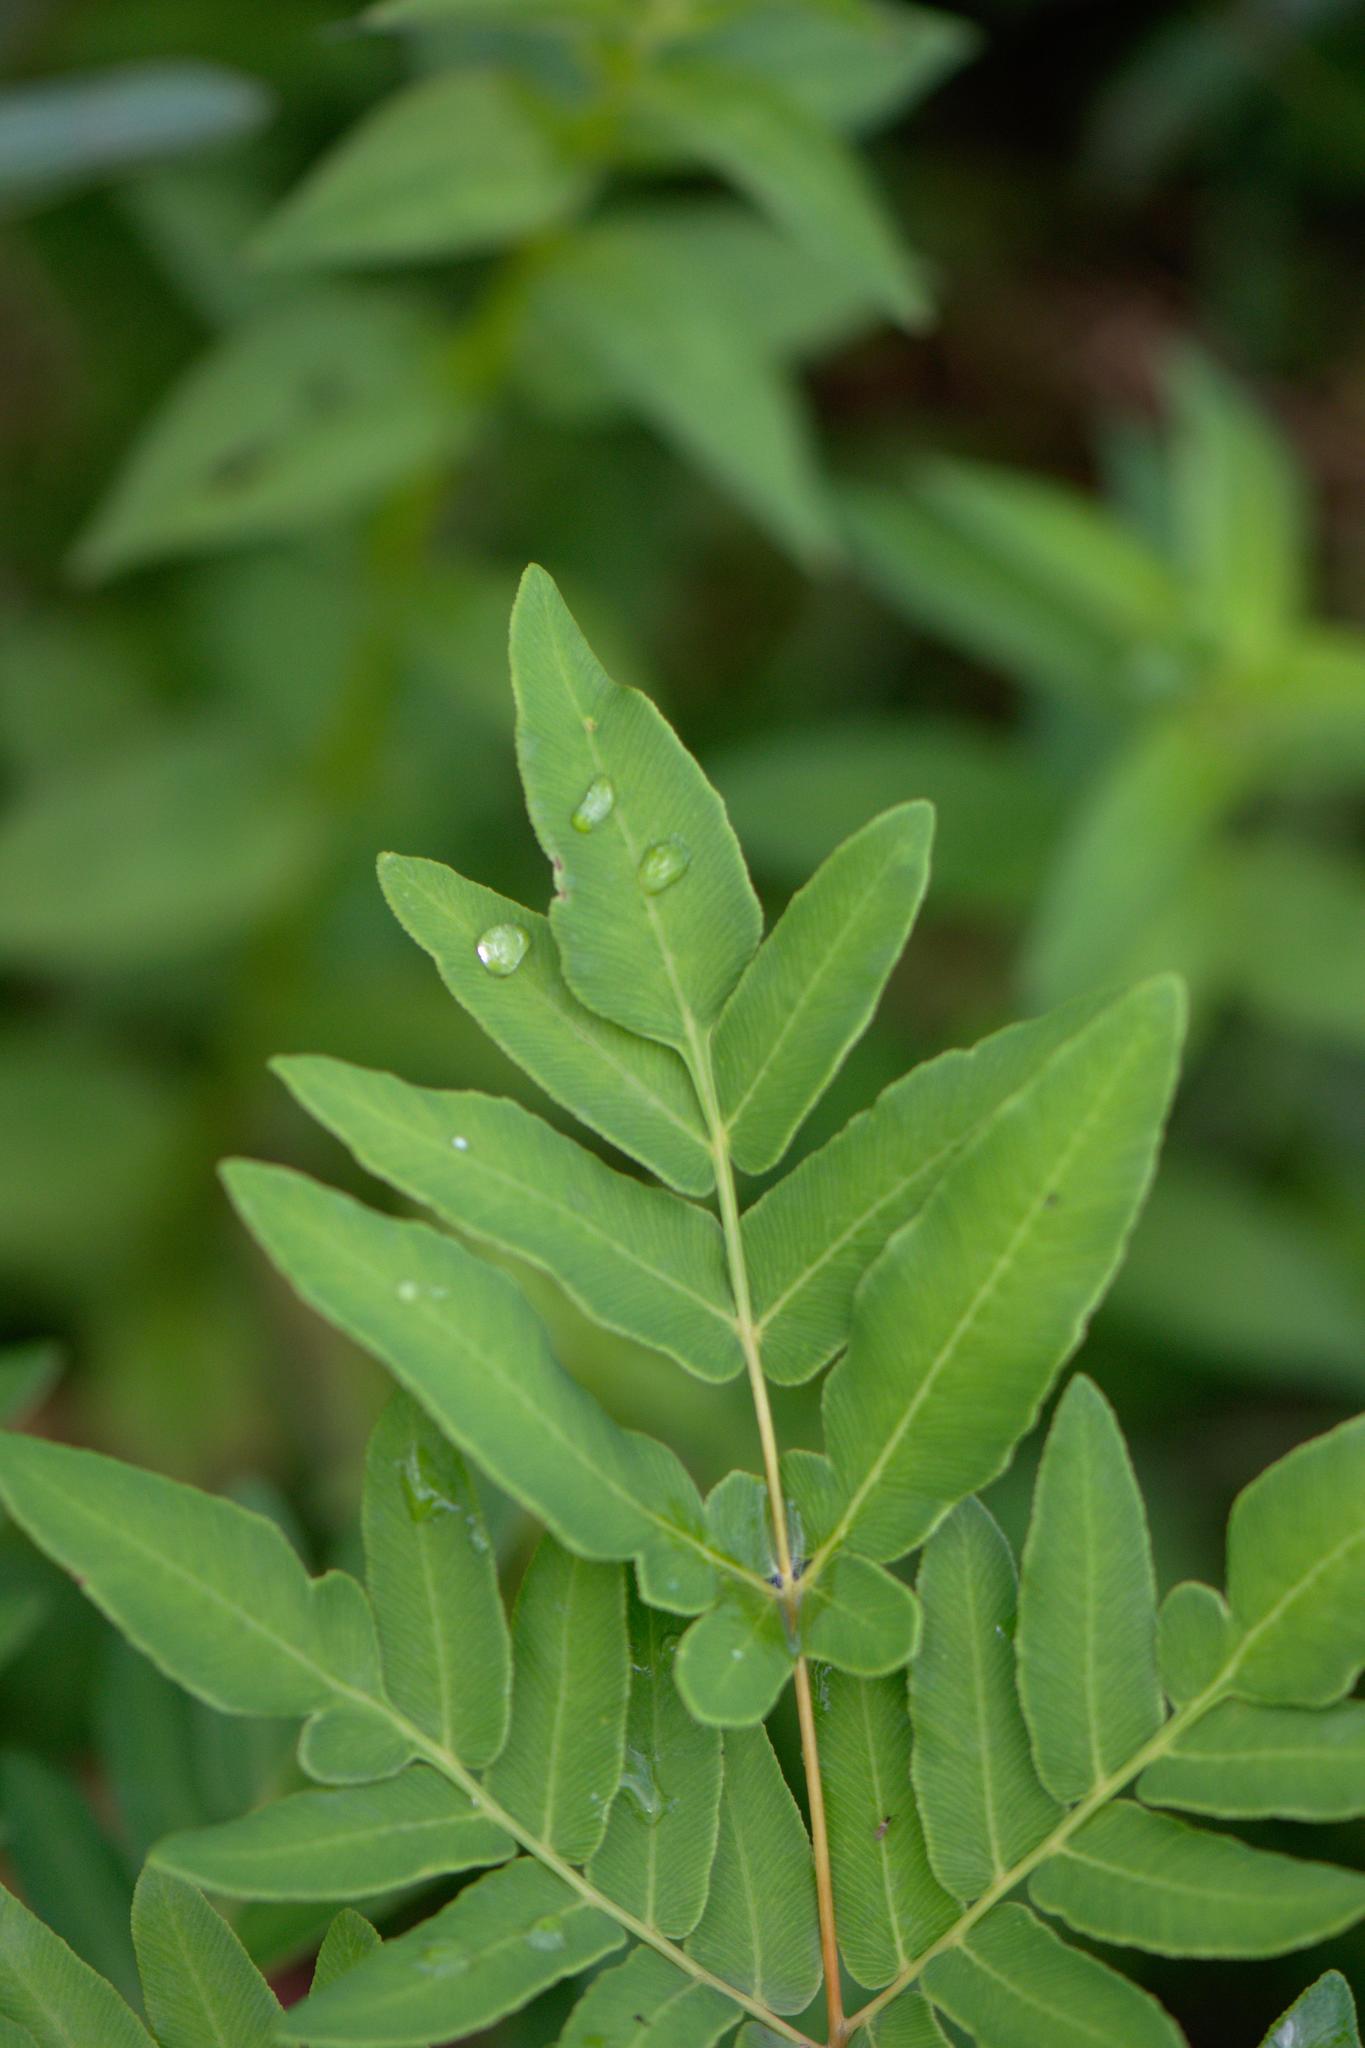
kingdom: Plantae
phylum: Tracheophyta
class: Polypodiopsida
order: Osmundales
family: Osmundaceae
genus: Osmunda
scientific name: Osmunda japonica
